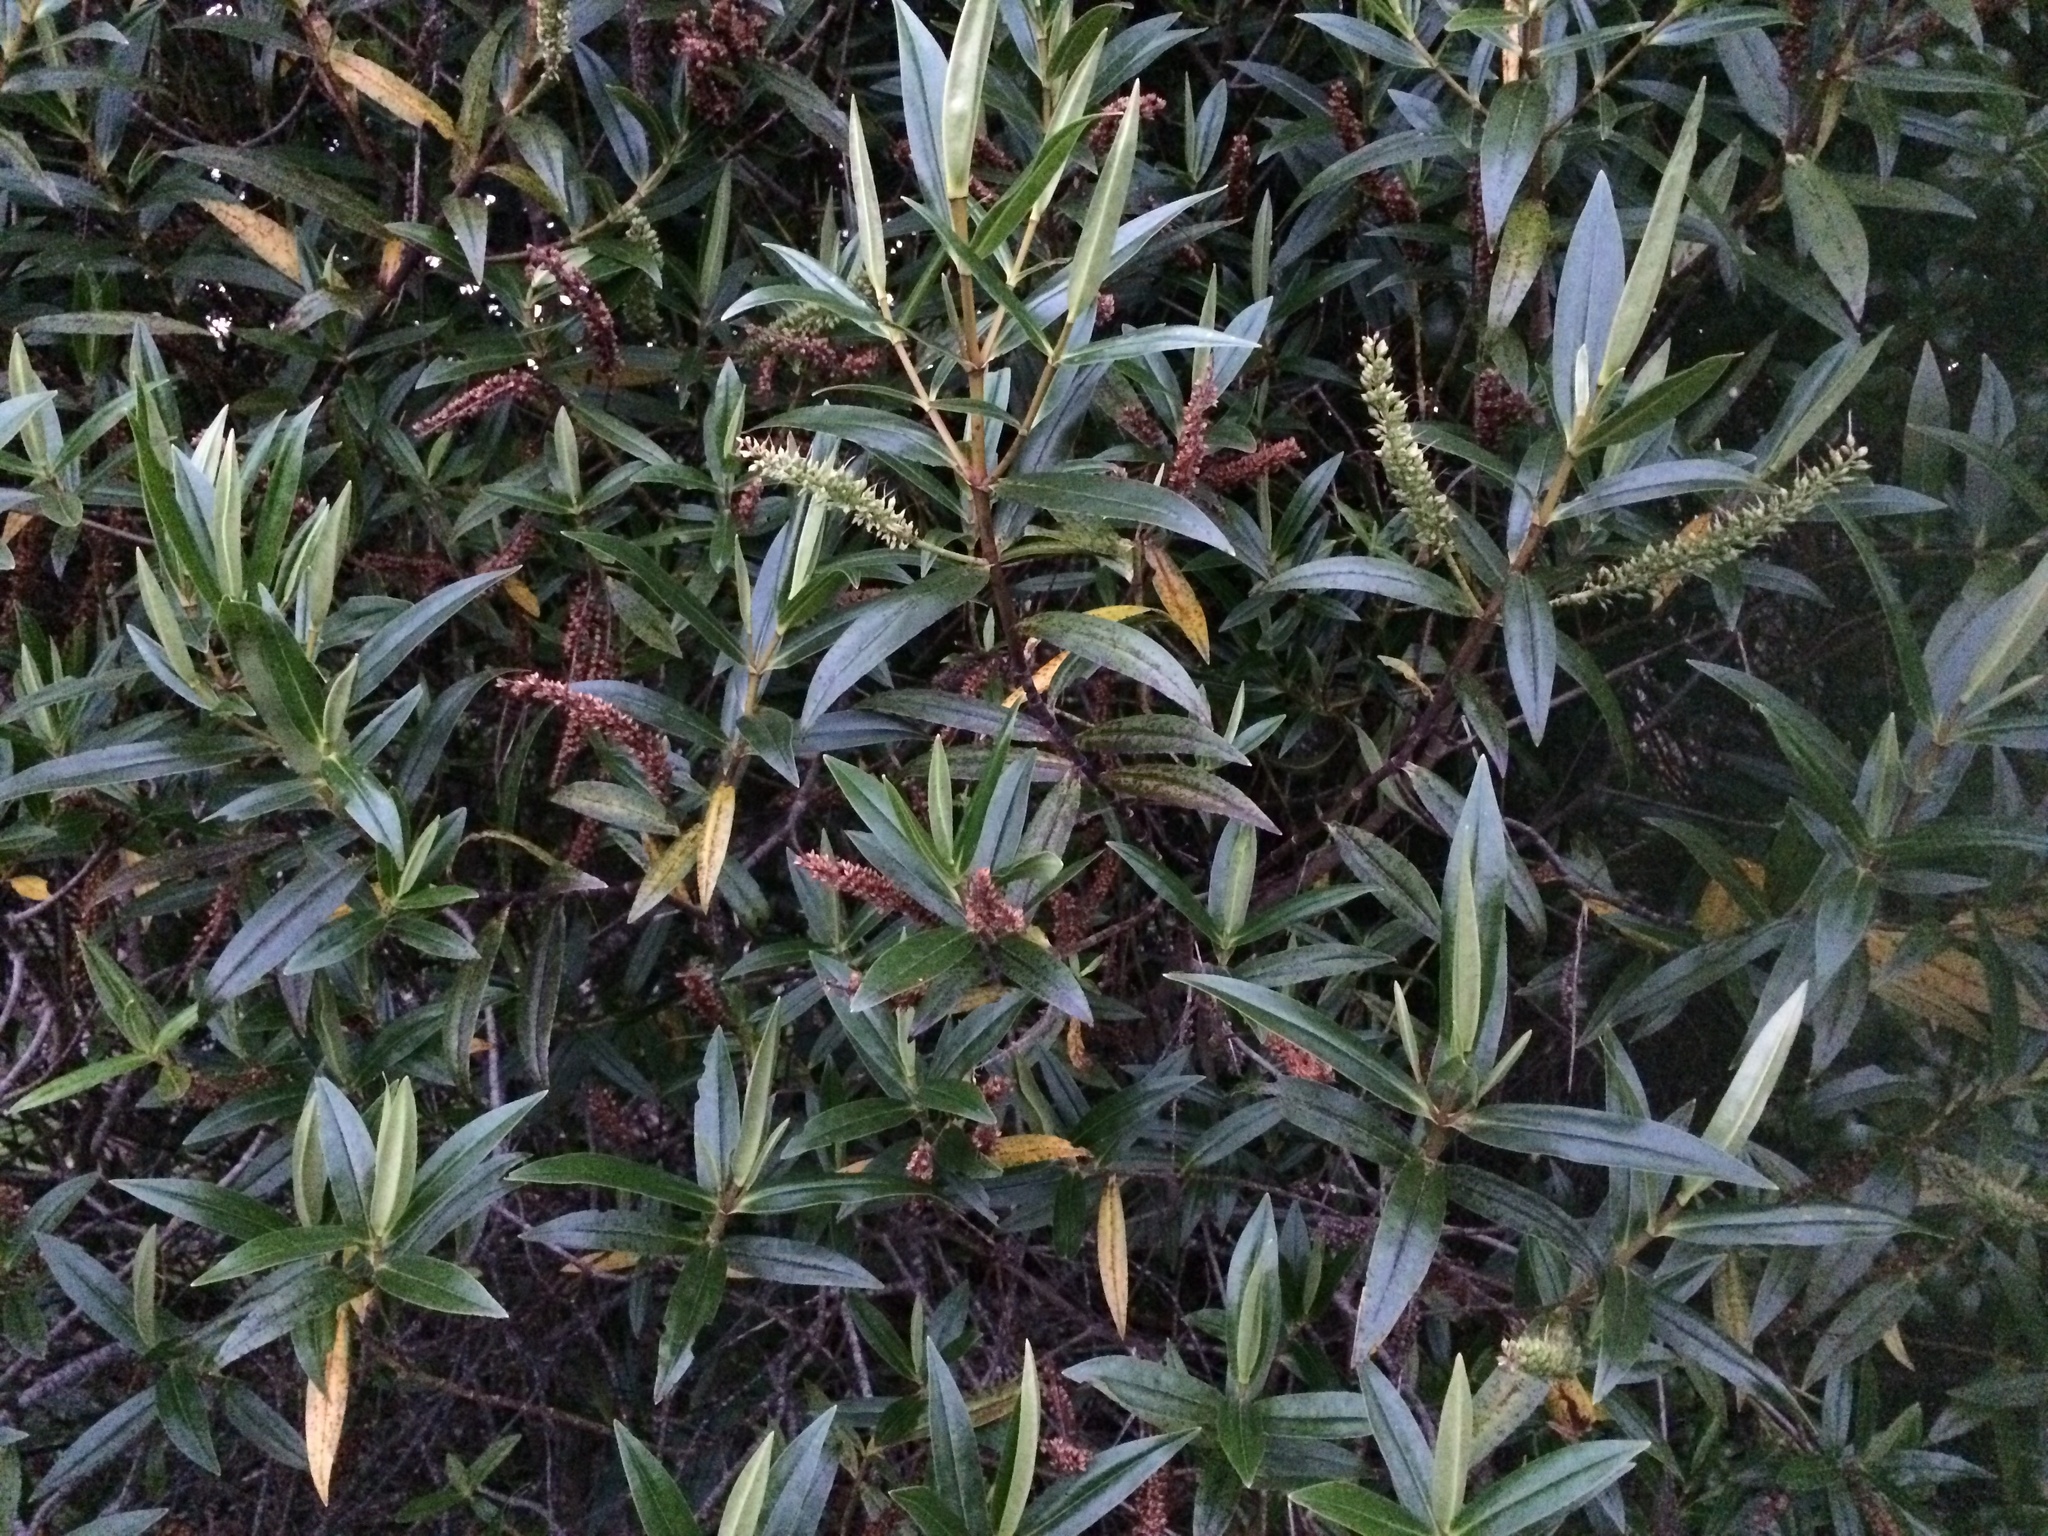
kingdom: Plantae
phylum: Tracheophyta
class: Magnoliopsida
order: Lamiales
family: Plantaginaceae
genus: Veronica
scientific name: Veronica salicifolia
